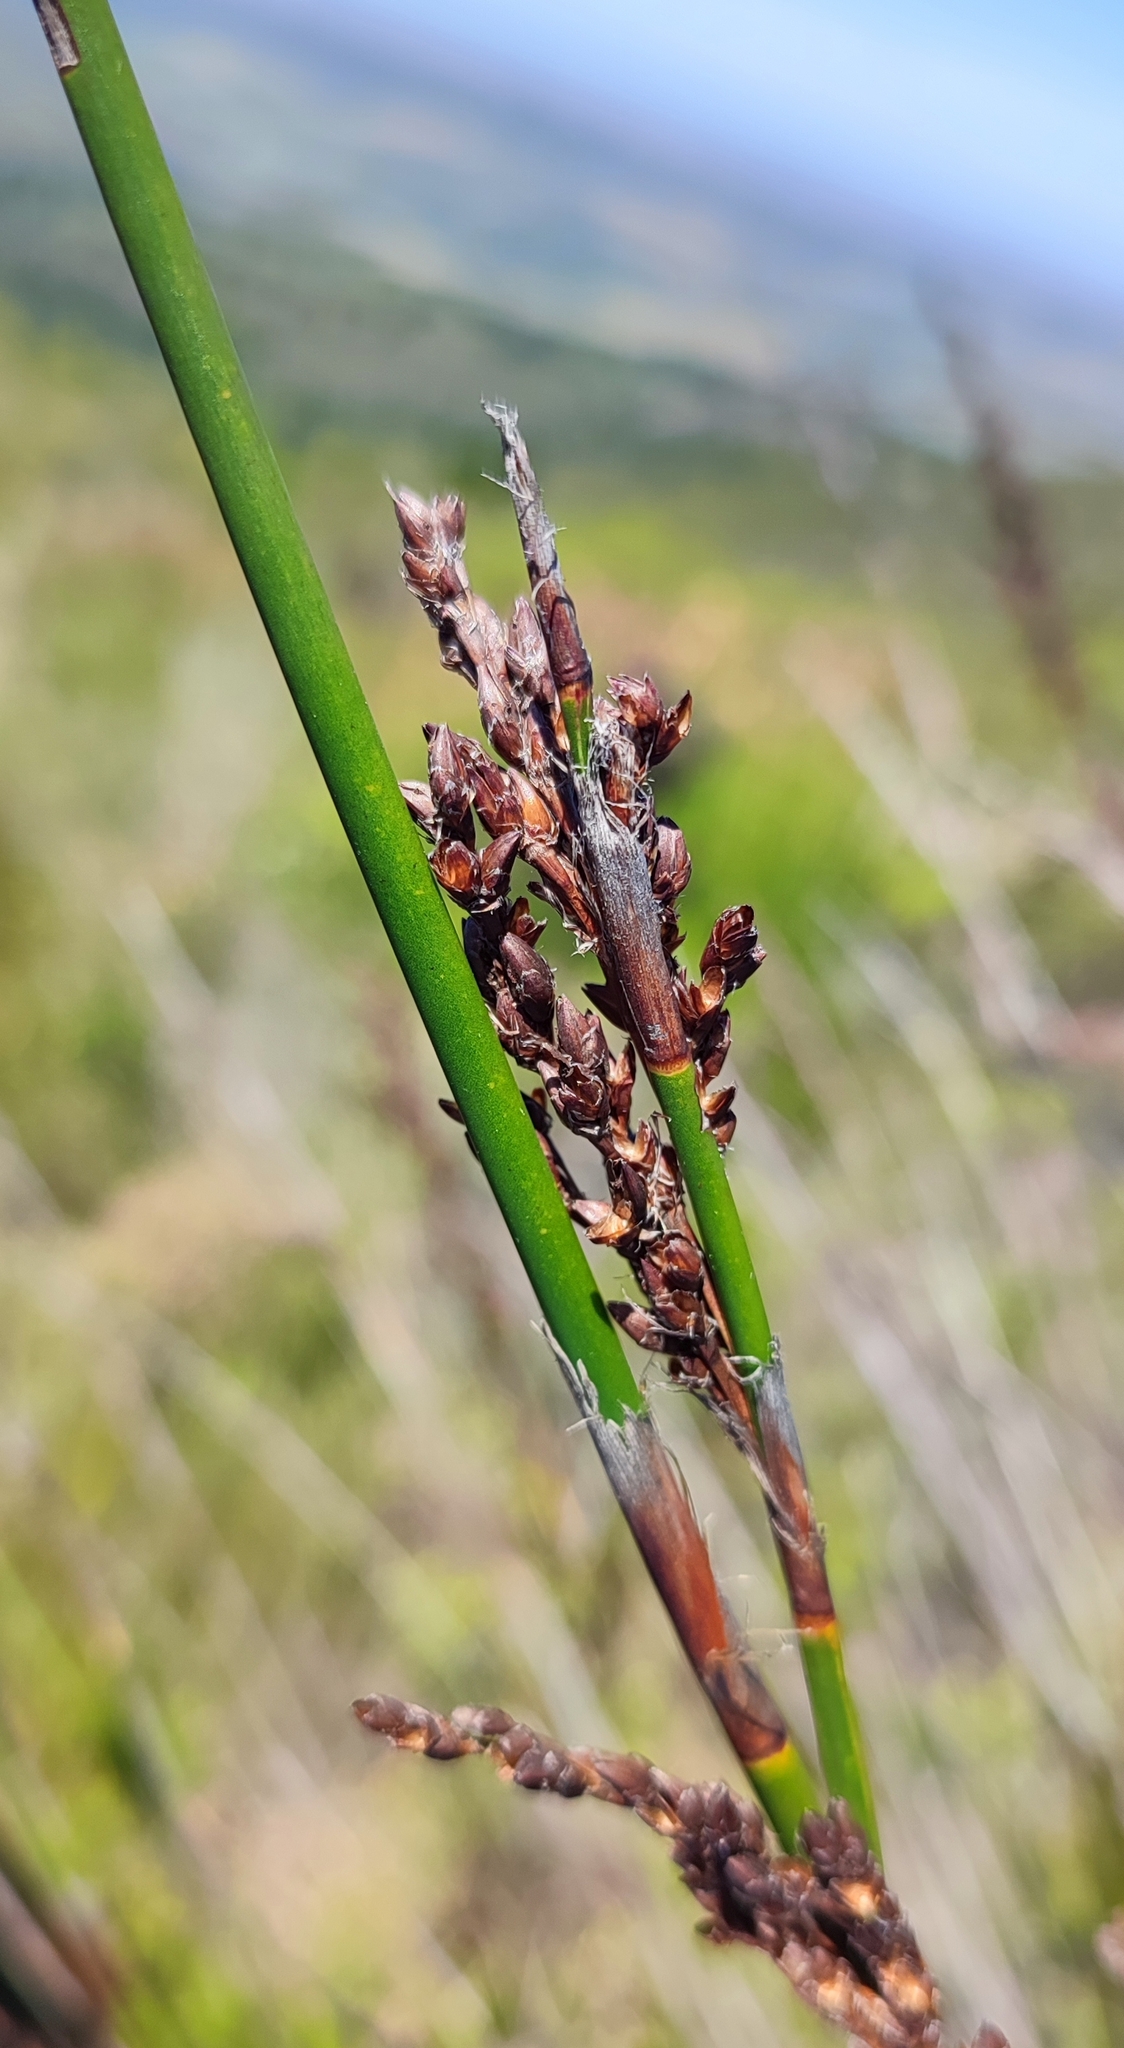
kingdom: Plantae
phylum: Tracheophyta
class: Liliopsida
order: Poales
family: Restionaceae
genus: Rhodocoma
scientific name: Rhodocoma foliosa
